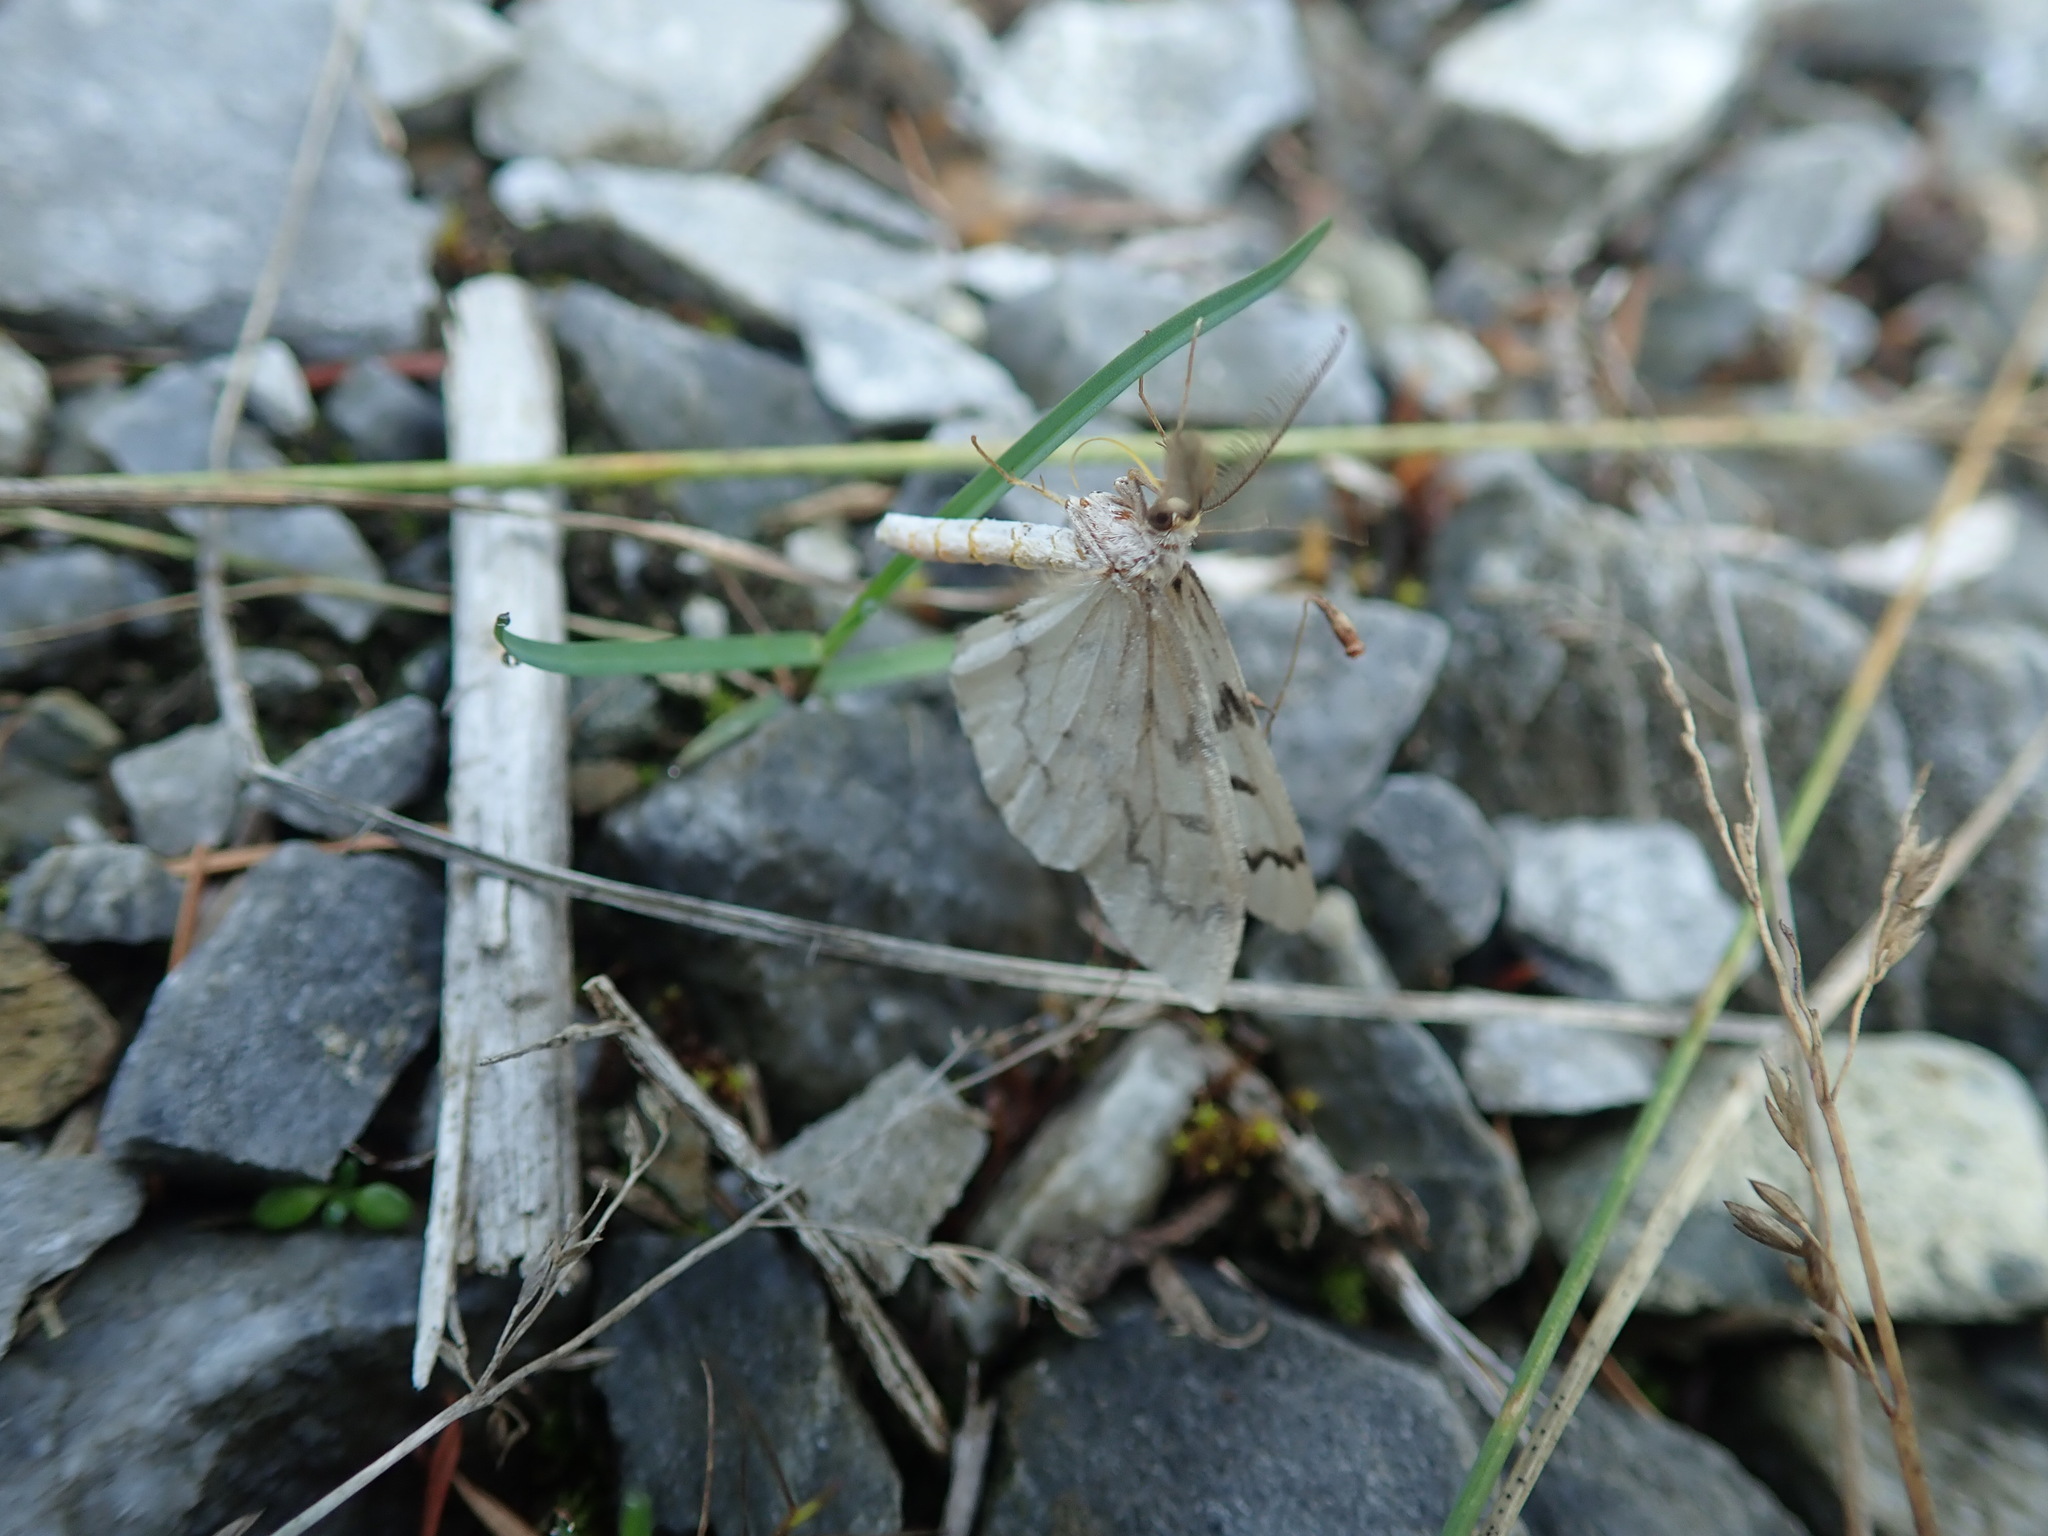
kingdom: Animalia
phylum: Arthropoda
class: Insecta
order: Lepidoptera
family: Geometridae
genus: Nepytia
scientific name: Nepytia phantasmaria
